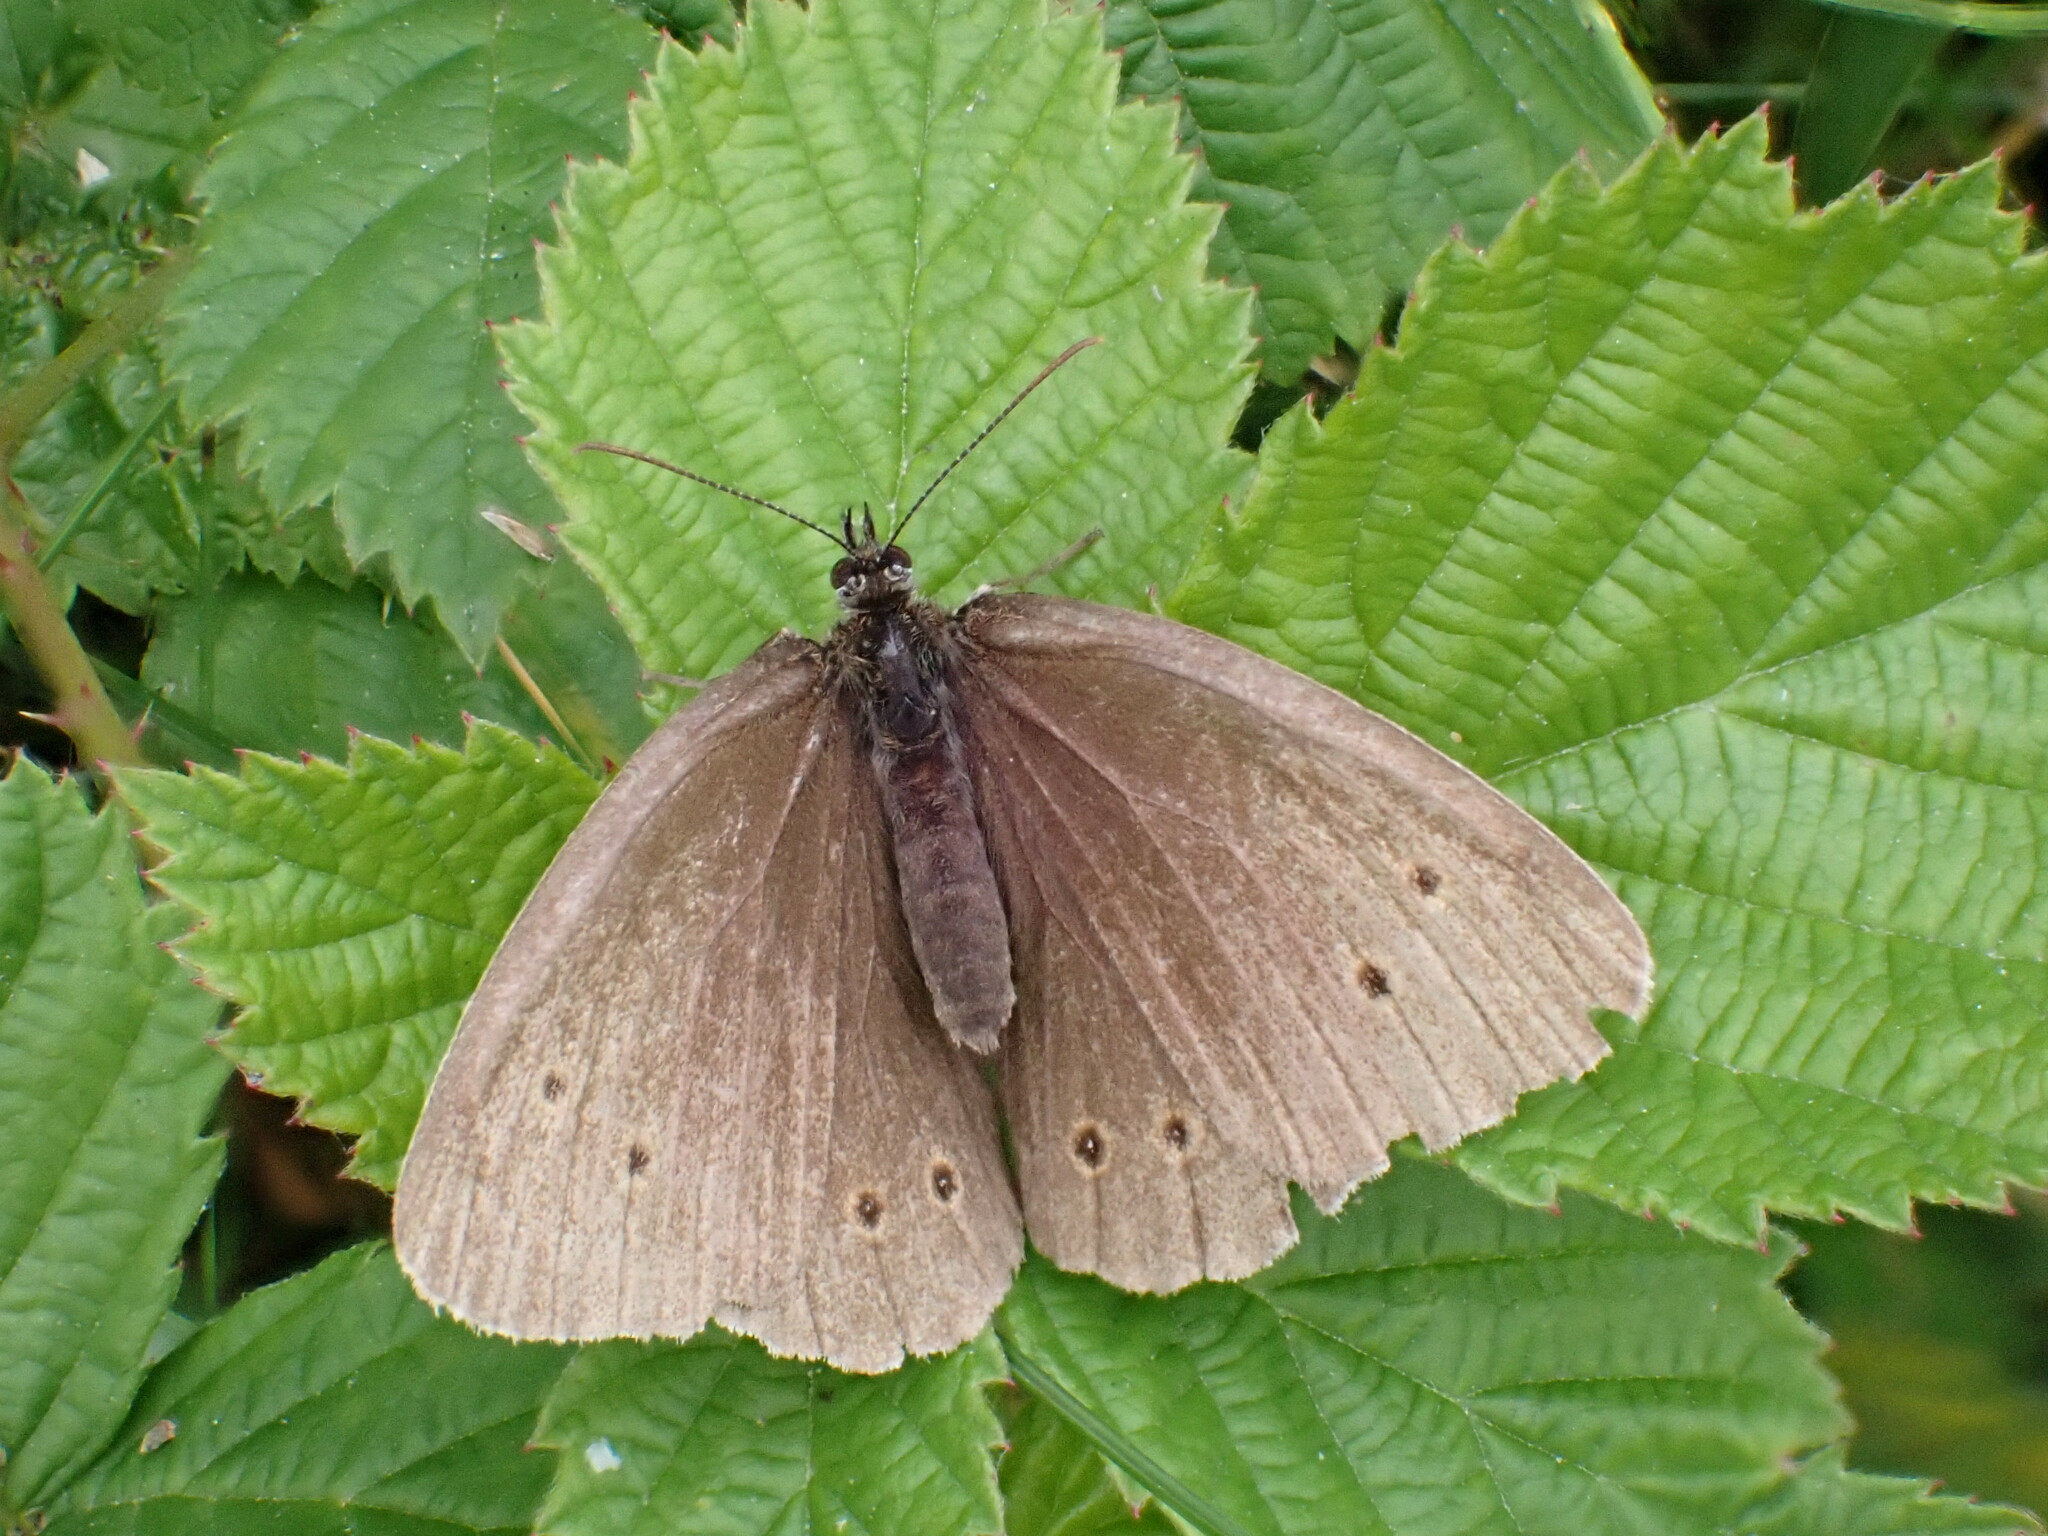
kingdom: Animalia
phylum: Arthropoda
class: Insecta
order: Lepidoptera
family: Nymphalidae
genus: Aphantopus
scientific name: Aphantopus hyperantus
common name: Ringlet
